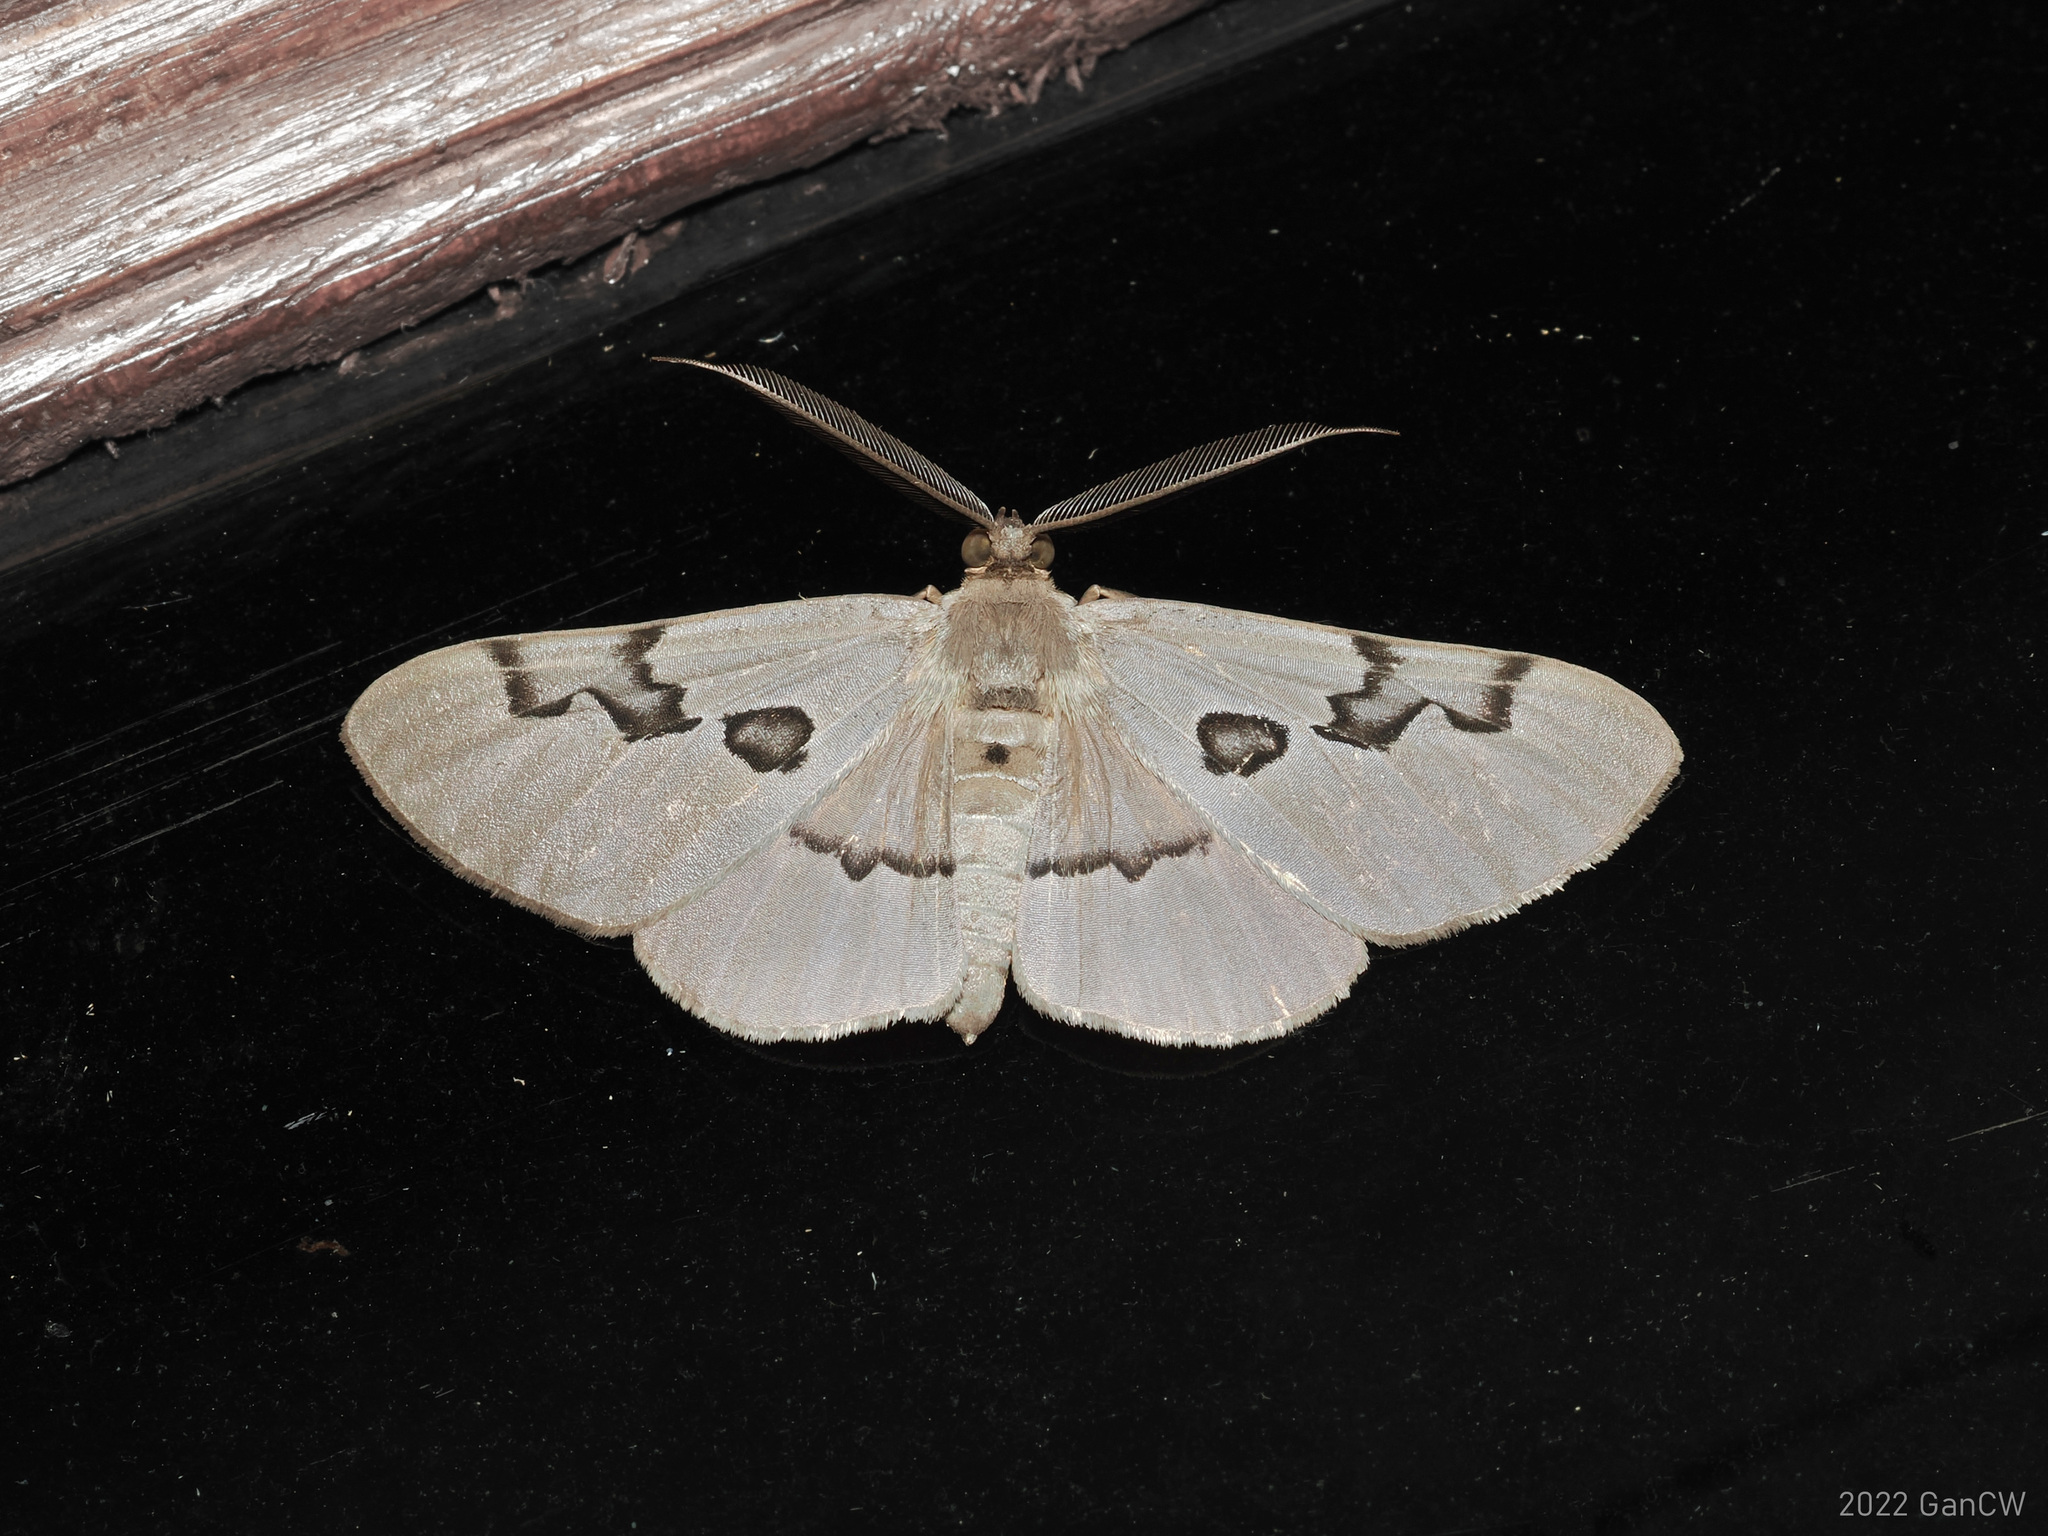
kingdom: Animalia
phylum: Arthropoda
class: Insecta
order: Lepidoptera
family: Geometridae
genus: Hypochrosis
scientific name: Hypochrosis sternaria
